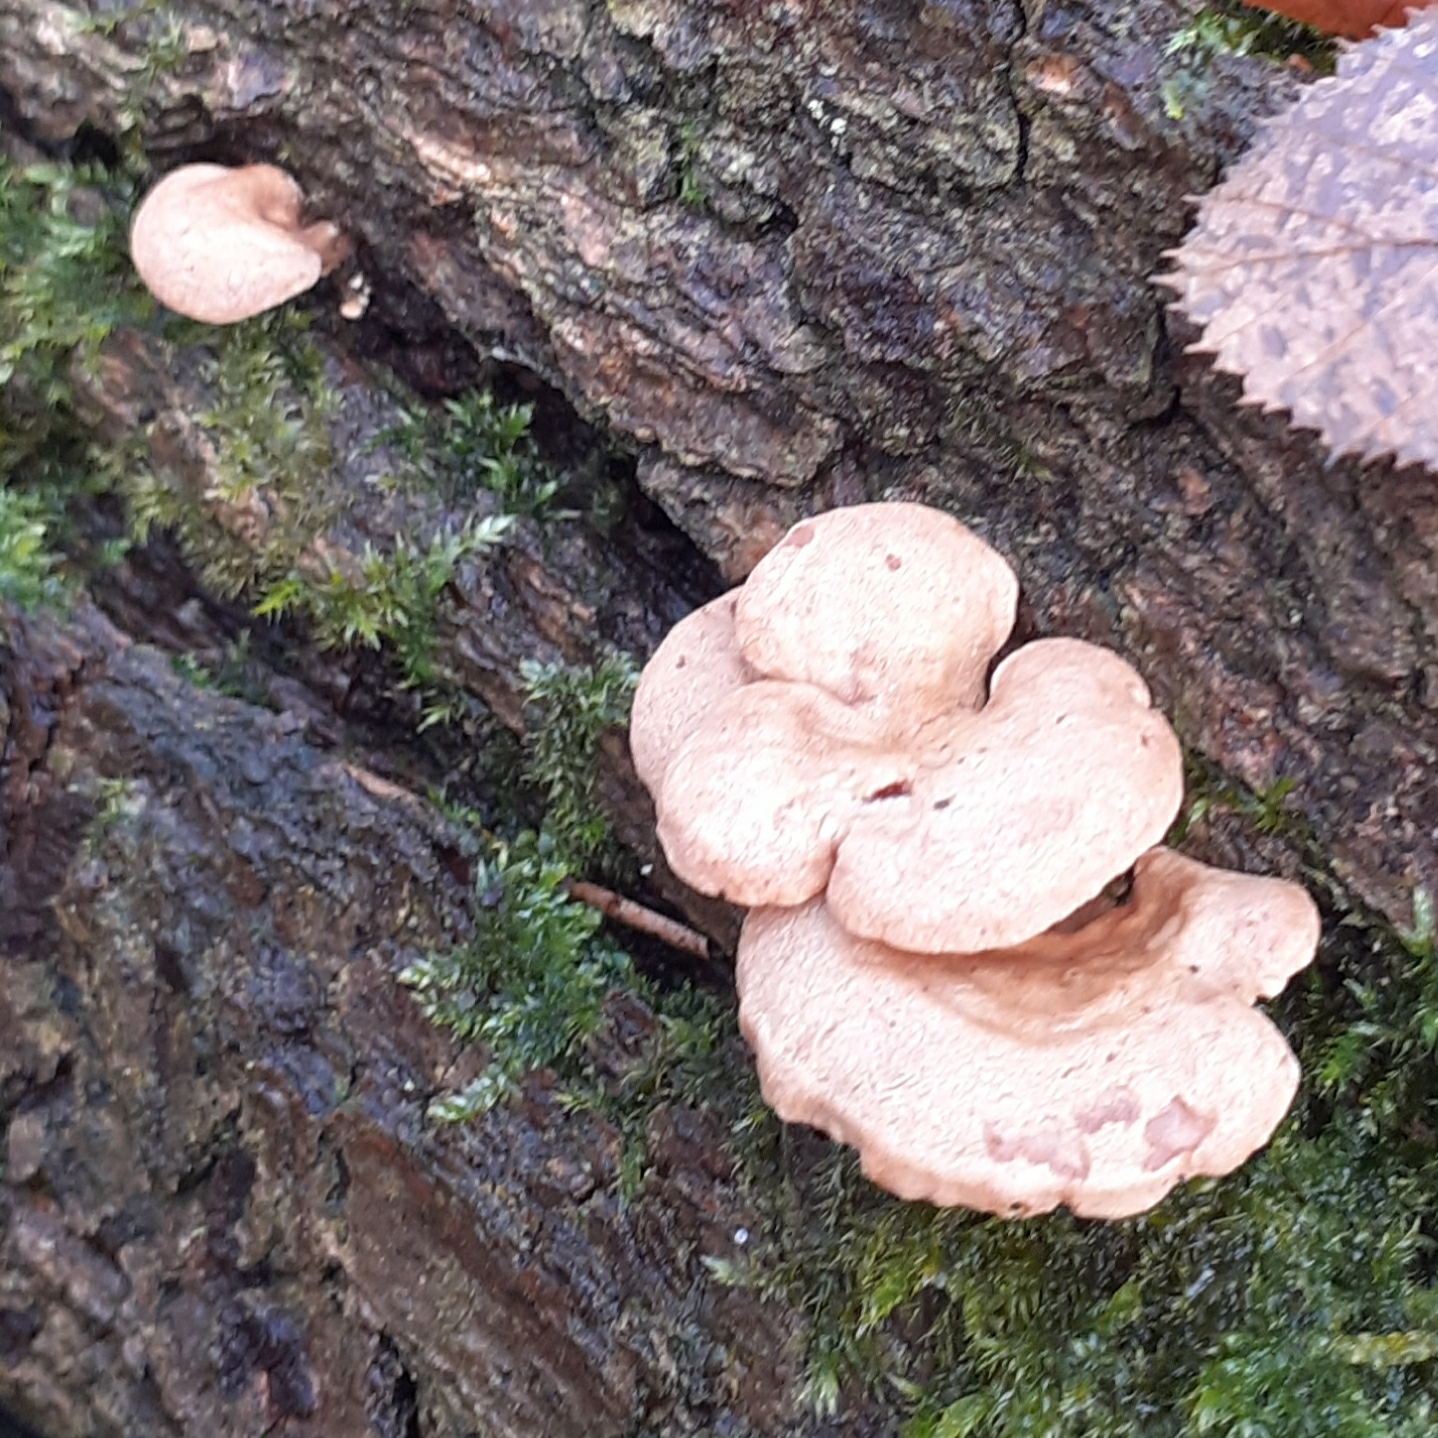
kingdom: Fungi
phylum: Basidiomycota
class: Agaricomycetes
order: Agaricales
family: Mycenaceae
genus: Panellus
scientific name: Panellus stipticus
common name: Bitter oysterling
